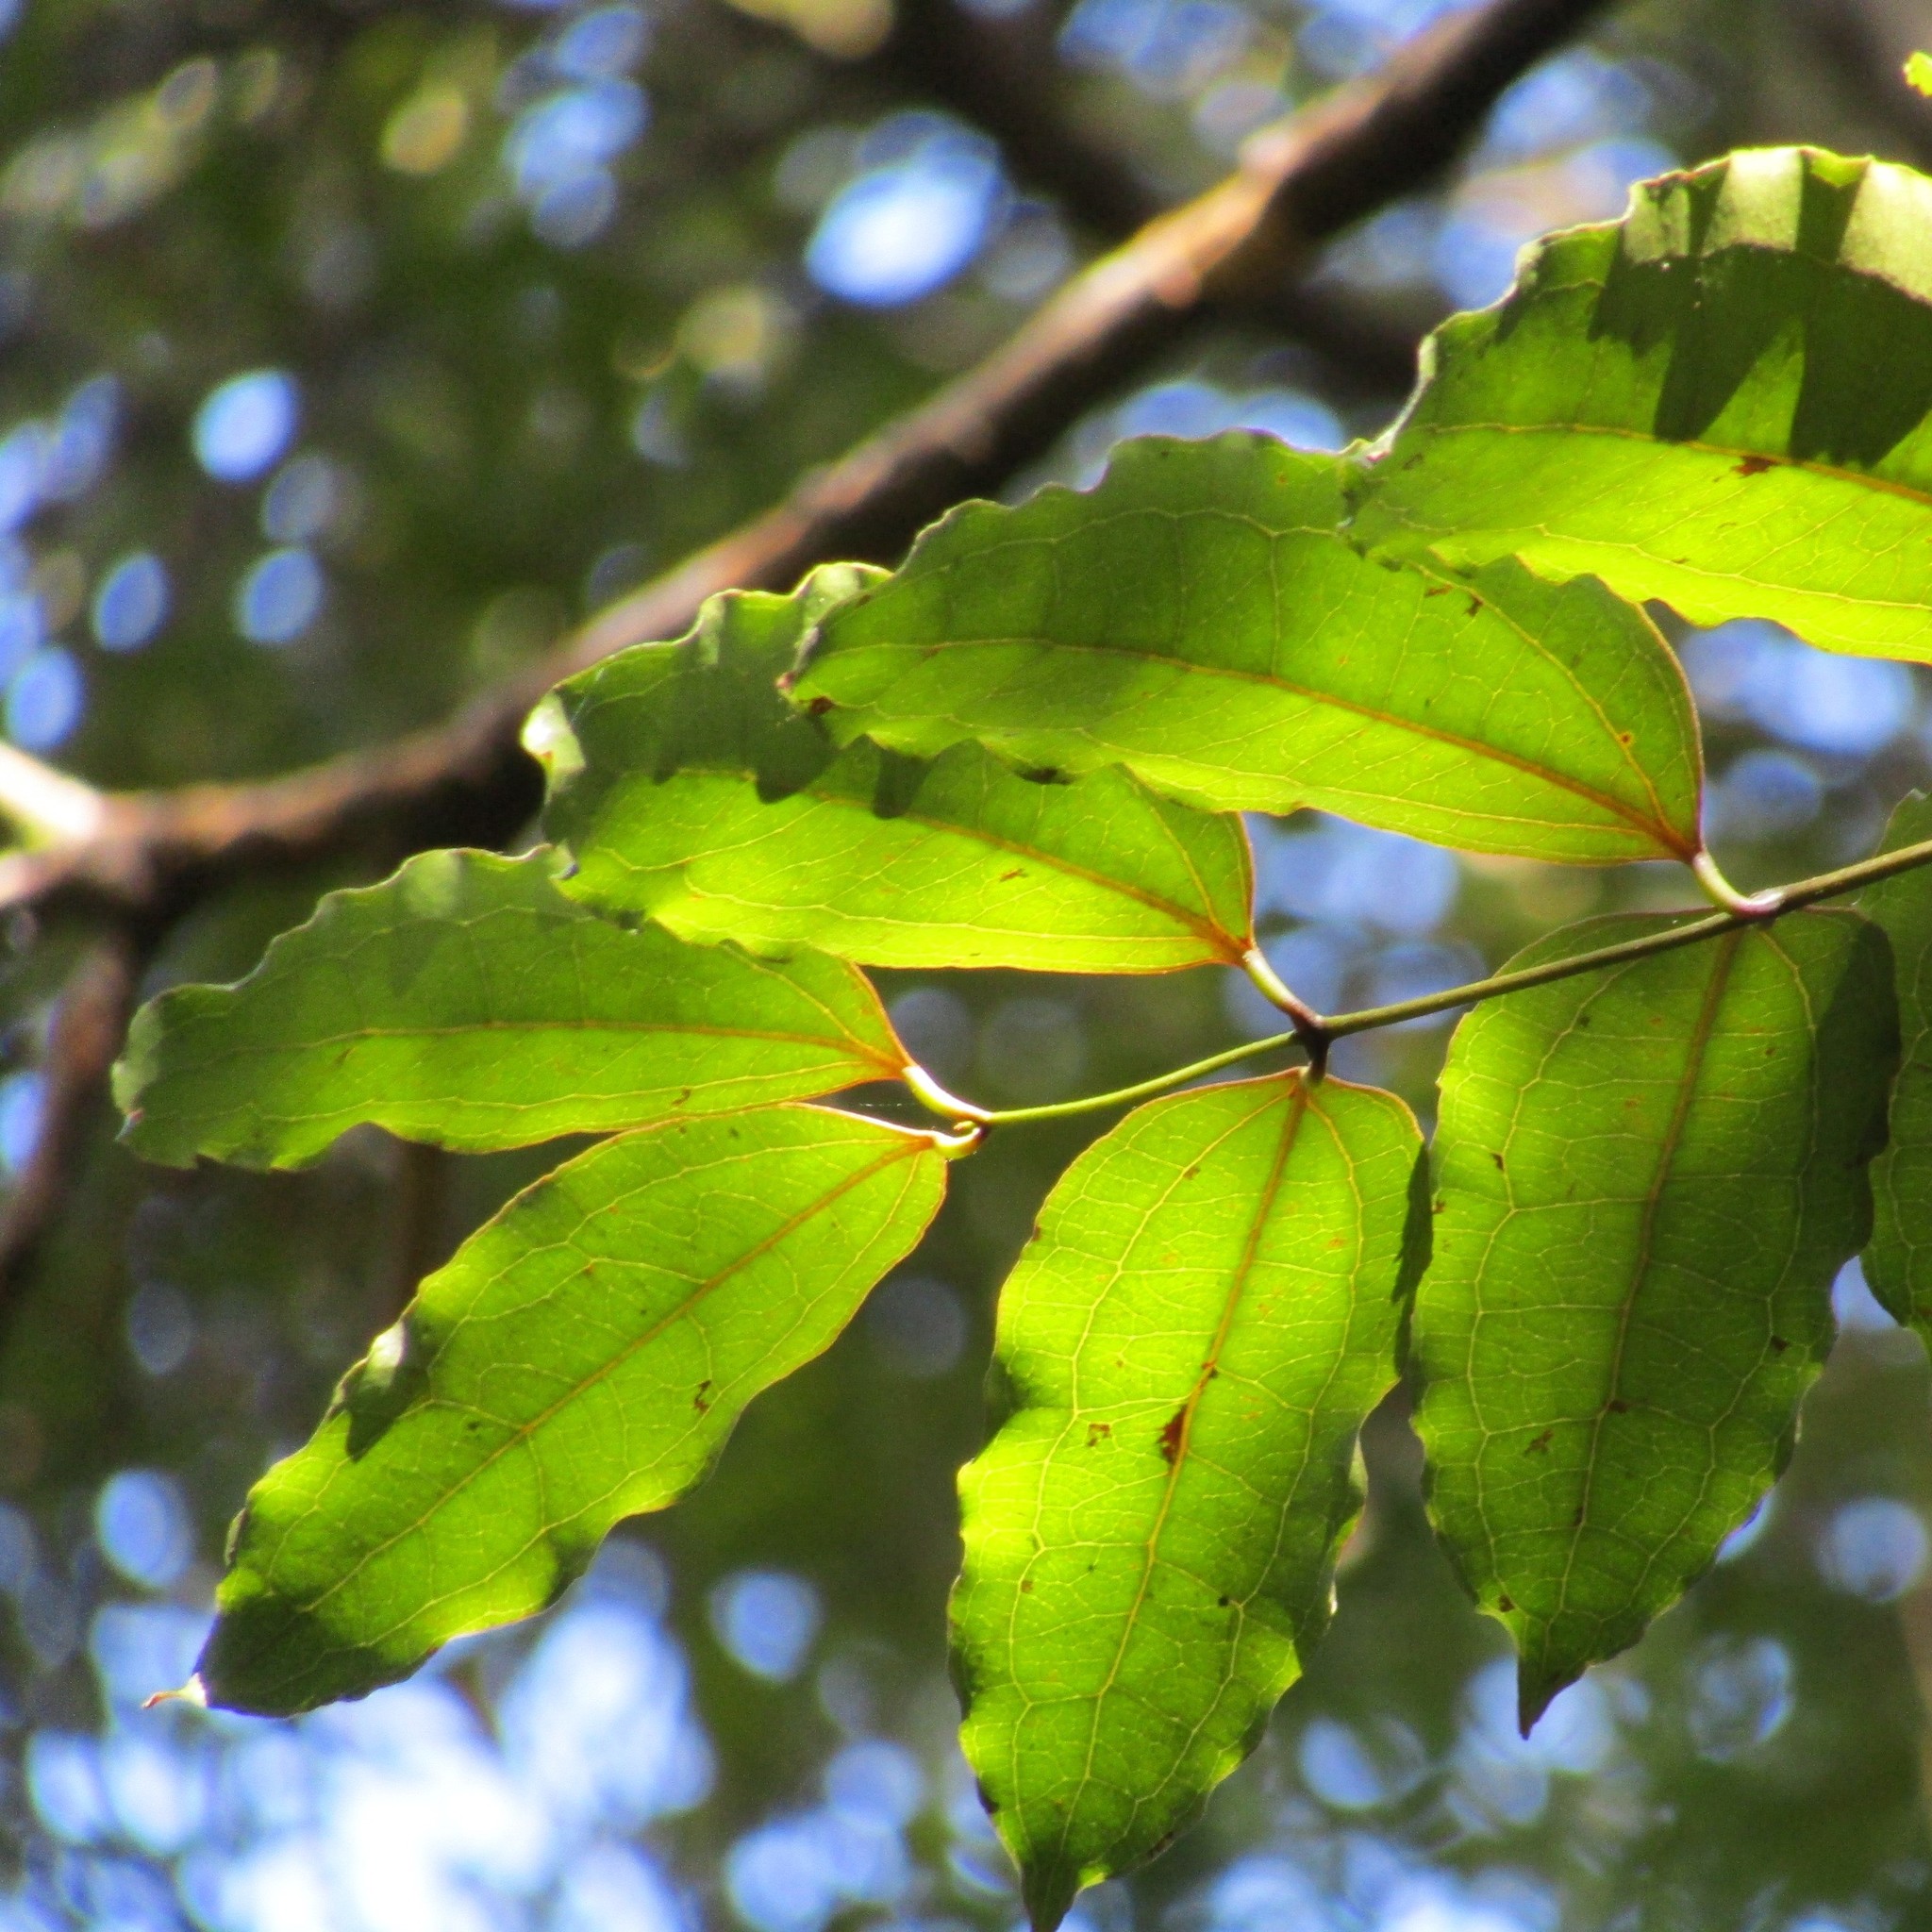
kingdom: Plantae
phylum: Tracheophyta
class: Liliopsida
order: Liliales
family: Ripogonaceae
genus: Ripogonum
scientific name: Ripogonum scandens
